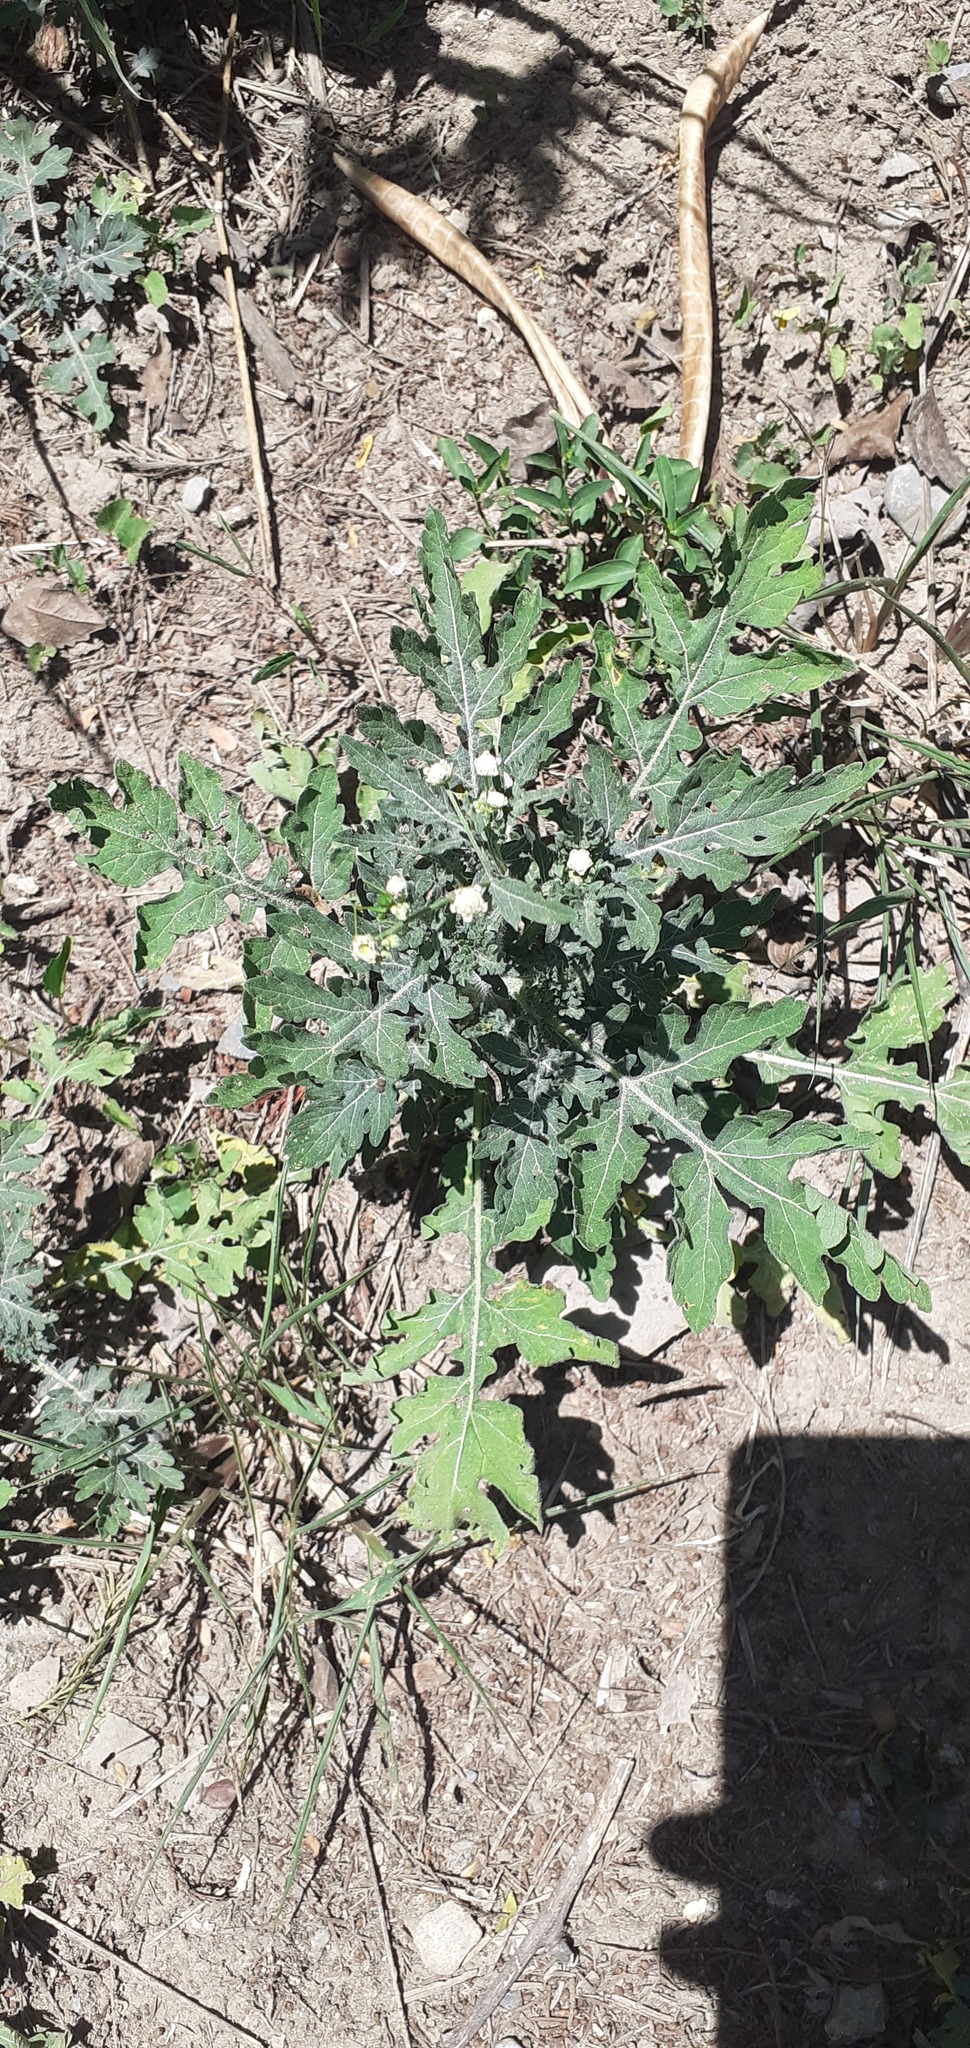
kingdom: Plantae
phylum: Tracheophyta
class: Magnoliopsida
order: Asterales
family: Asteraceae
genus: Parthenium
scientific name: Parthenium hysterophorus
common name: Santa maria feverfew
